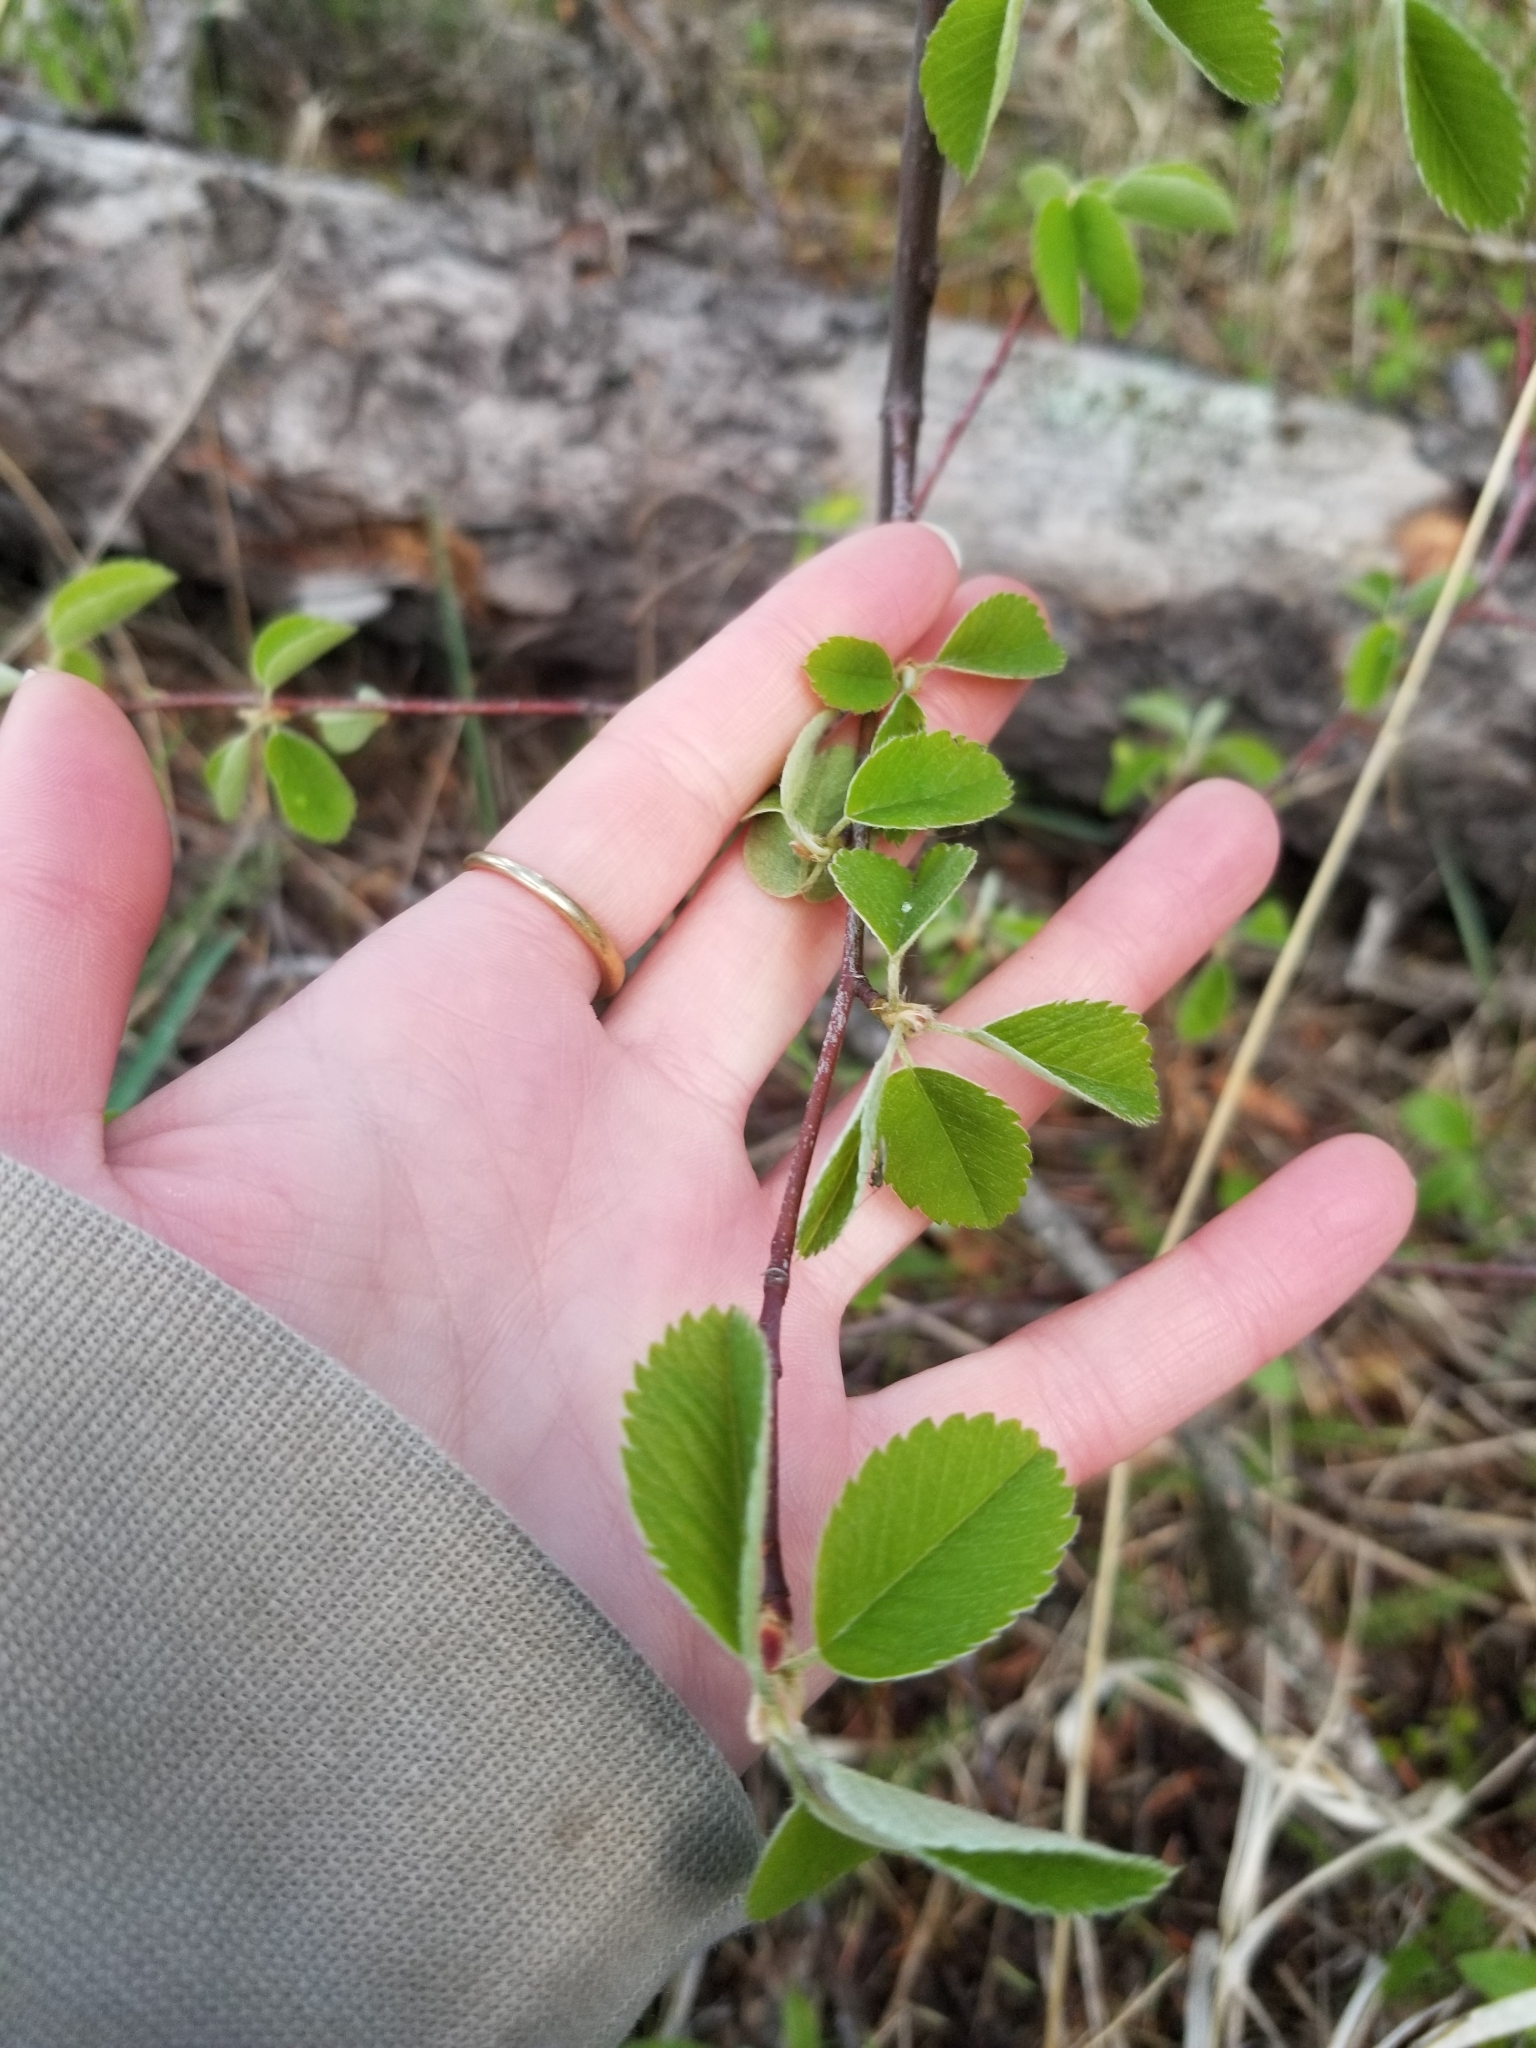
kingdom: Plantae
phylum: Tracheophyta
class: Magnoliopsida
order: Rosales
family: Rosaceae
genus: Amelanchier
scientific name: Amelanchier alnifolia
